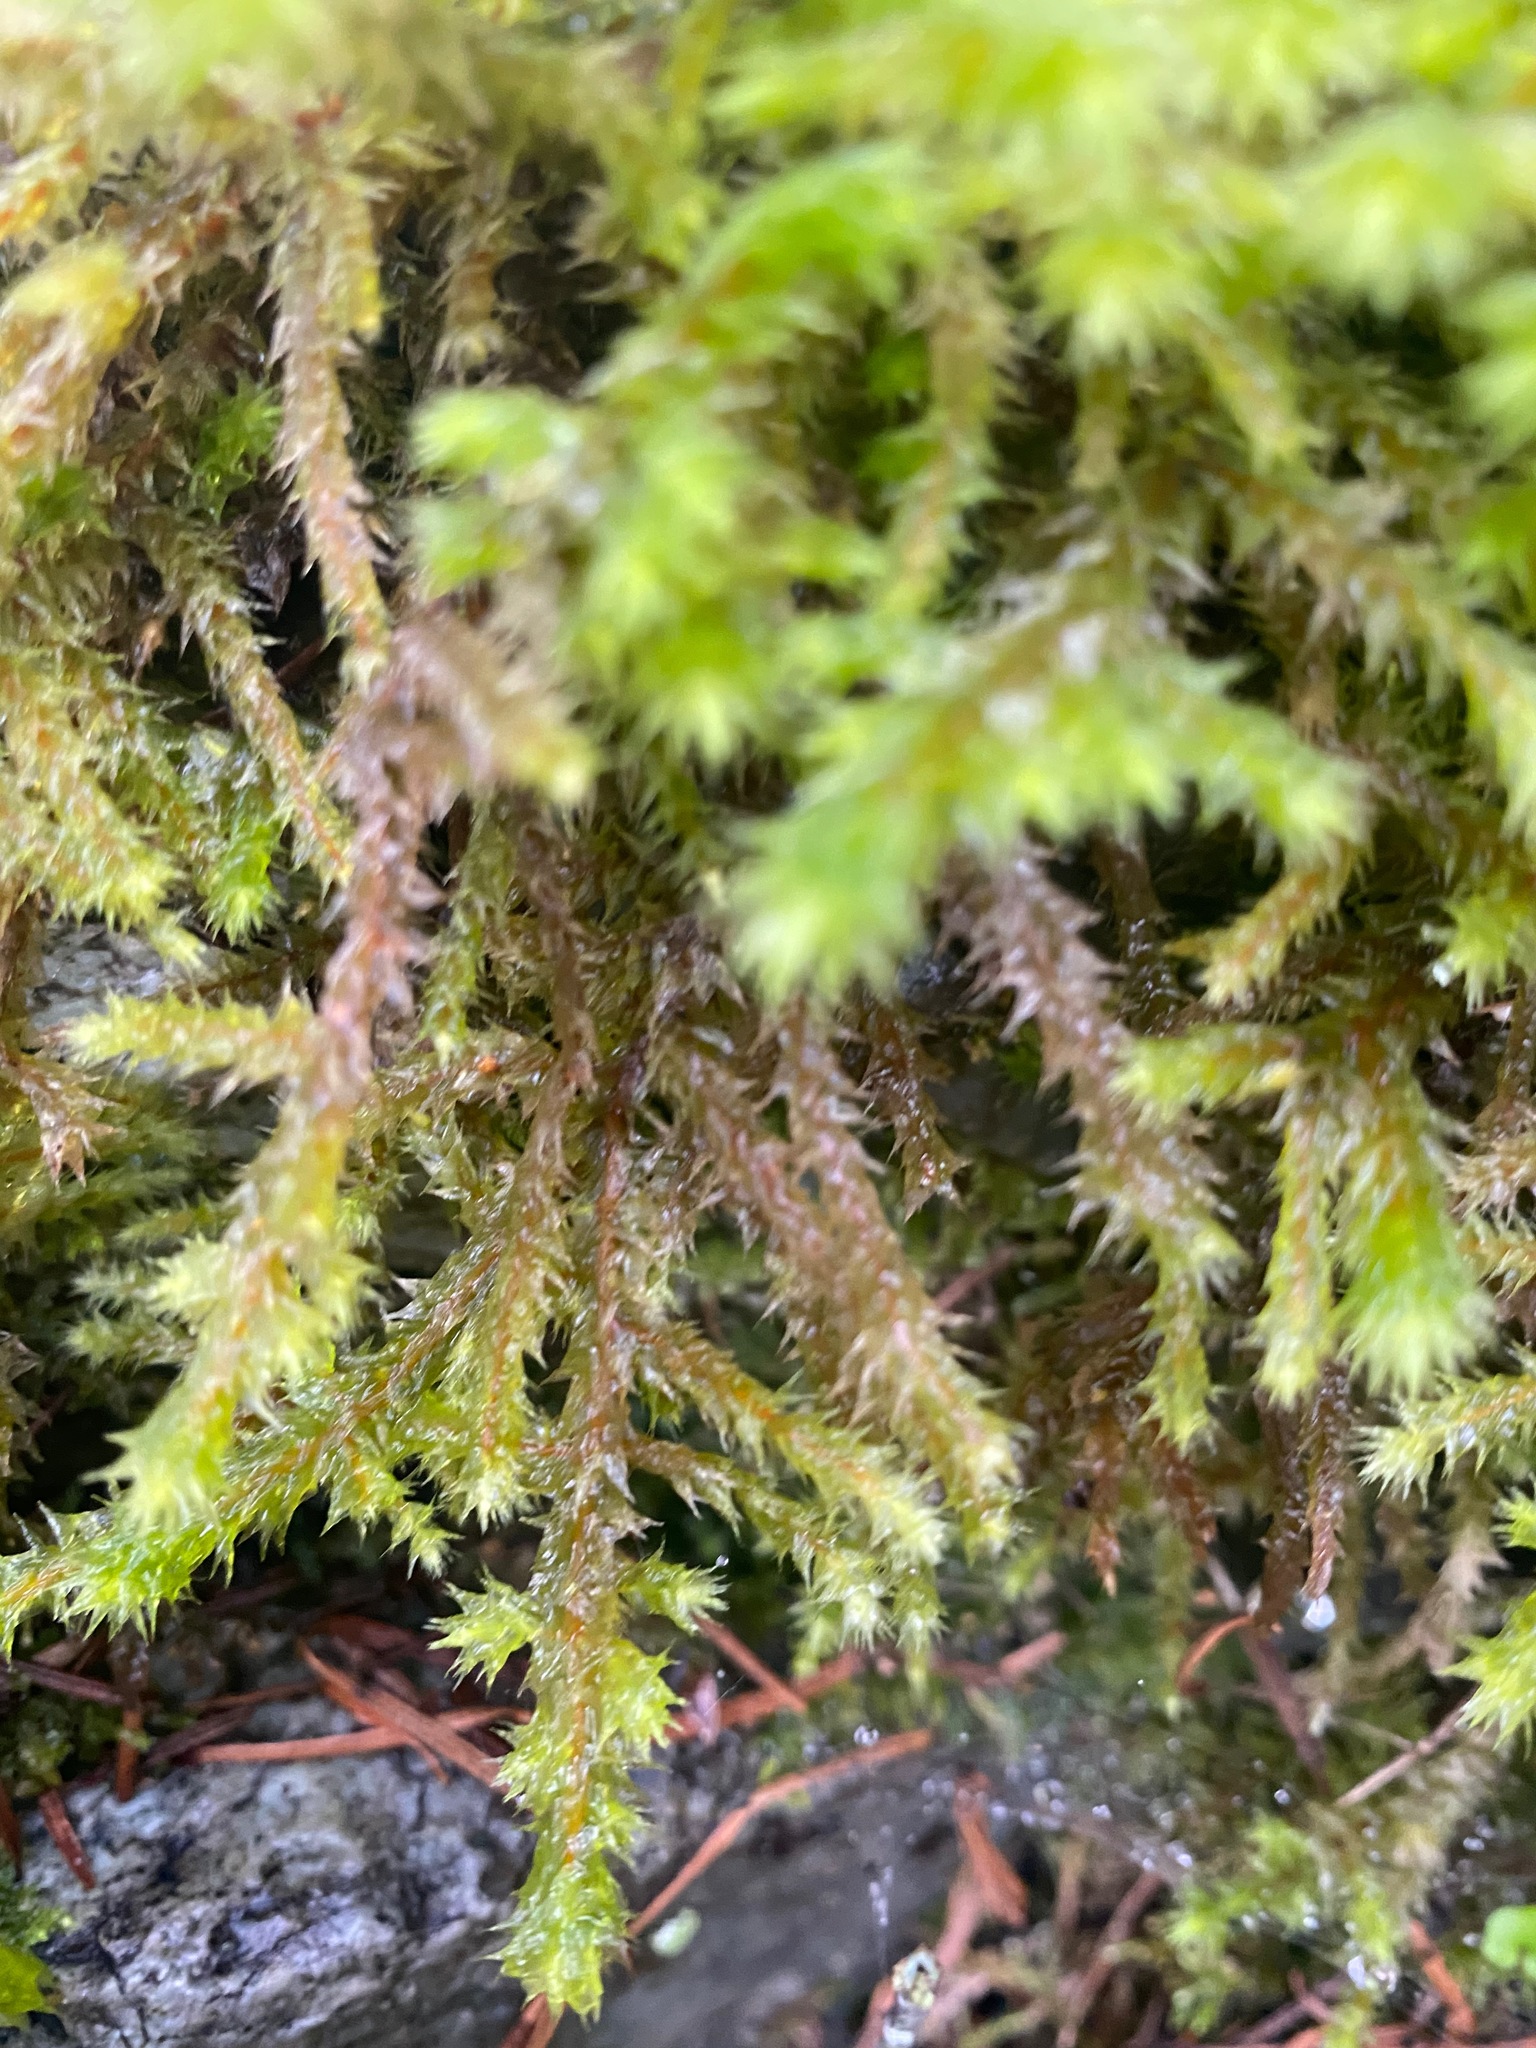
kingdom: Plantae
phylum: Bryophyta
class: Bryopsida
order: Hypnales
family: Hylocomiaceae
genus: Hylocomiadelphus
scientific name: Hylocomiadelphus triquetrus
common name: Rough goose neck moss
